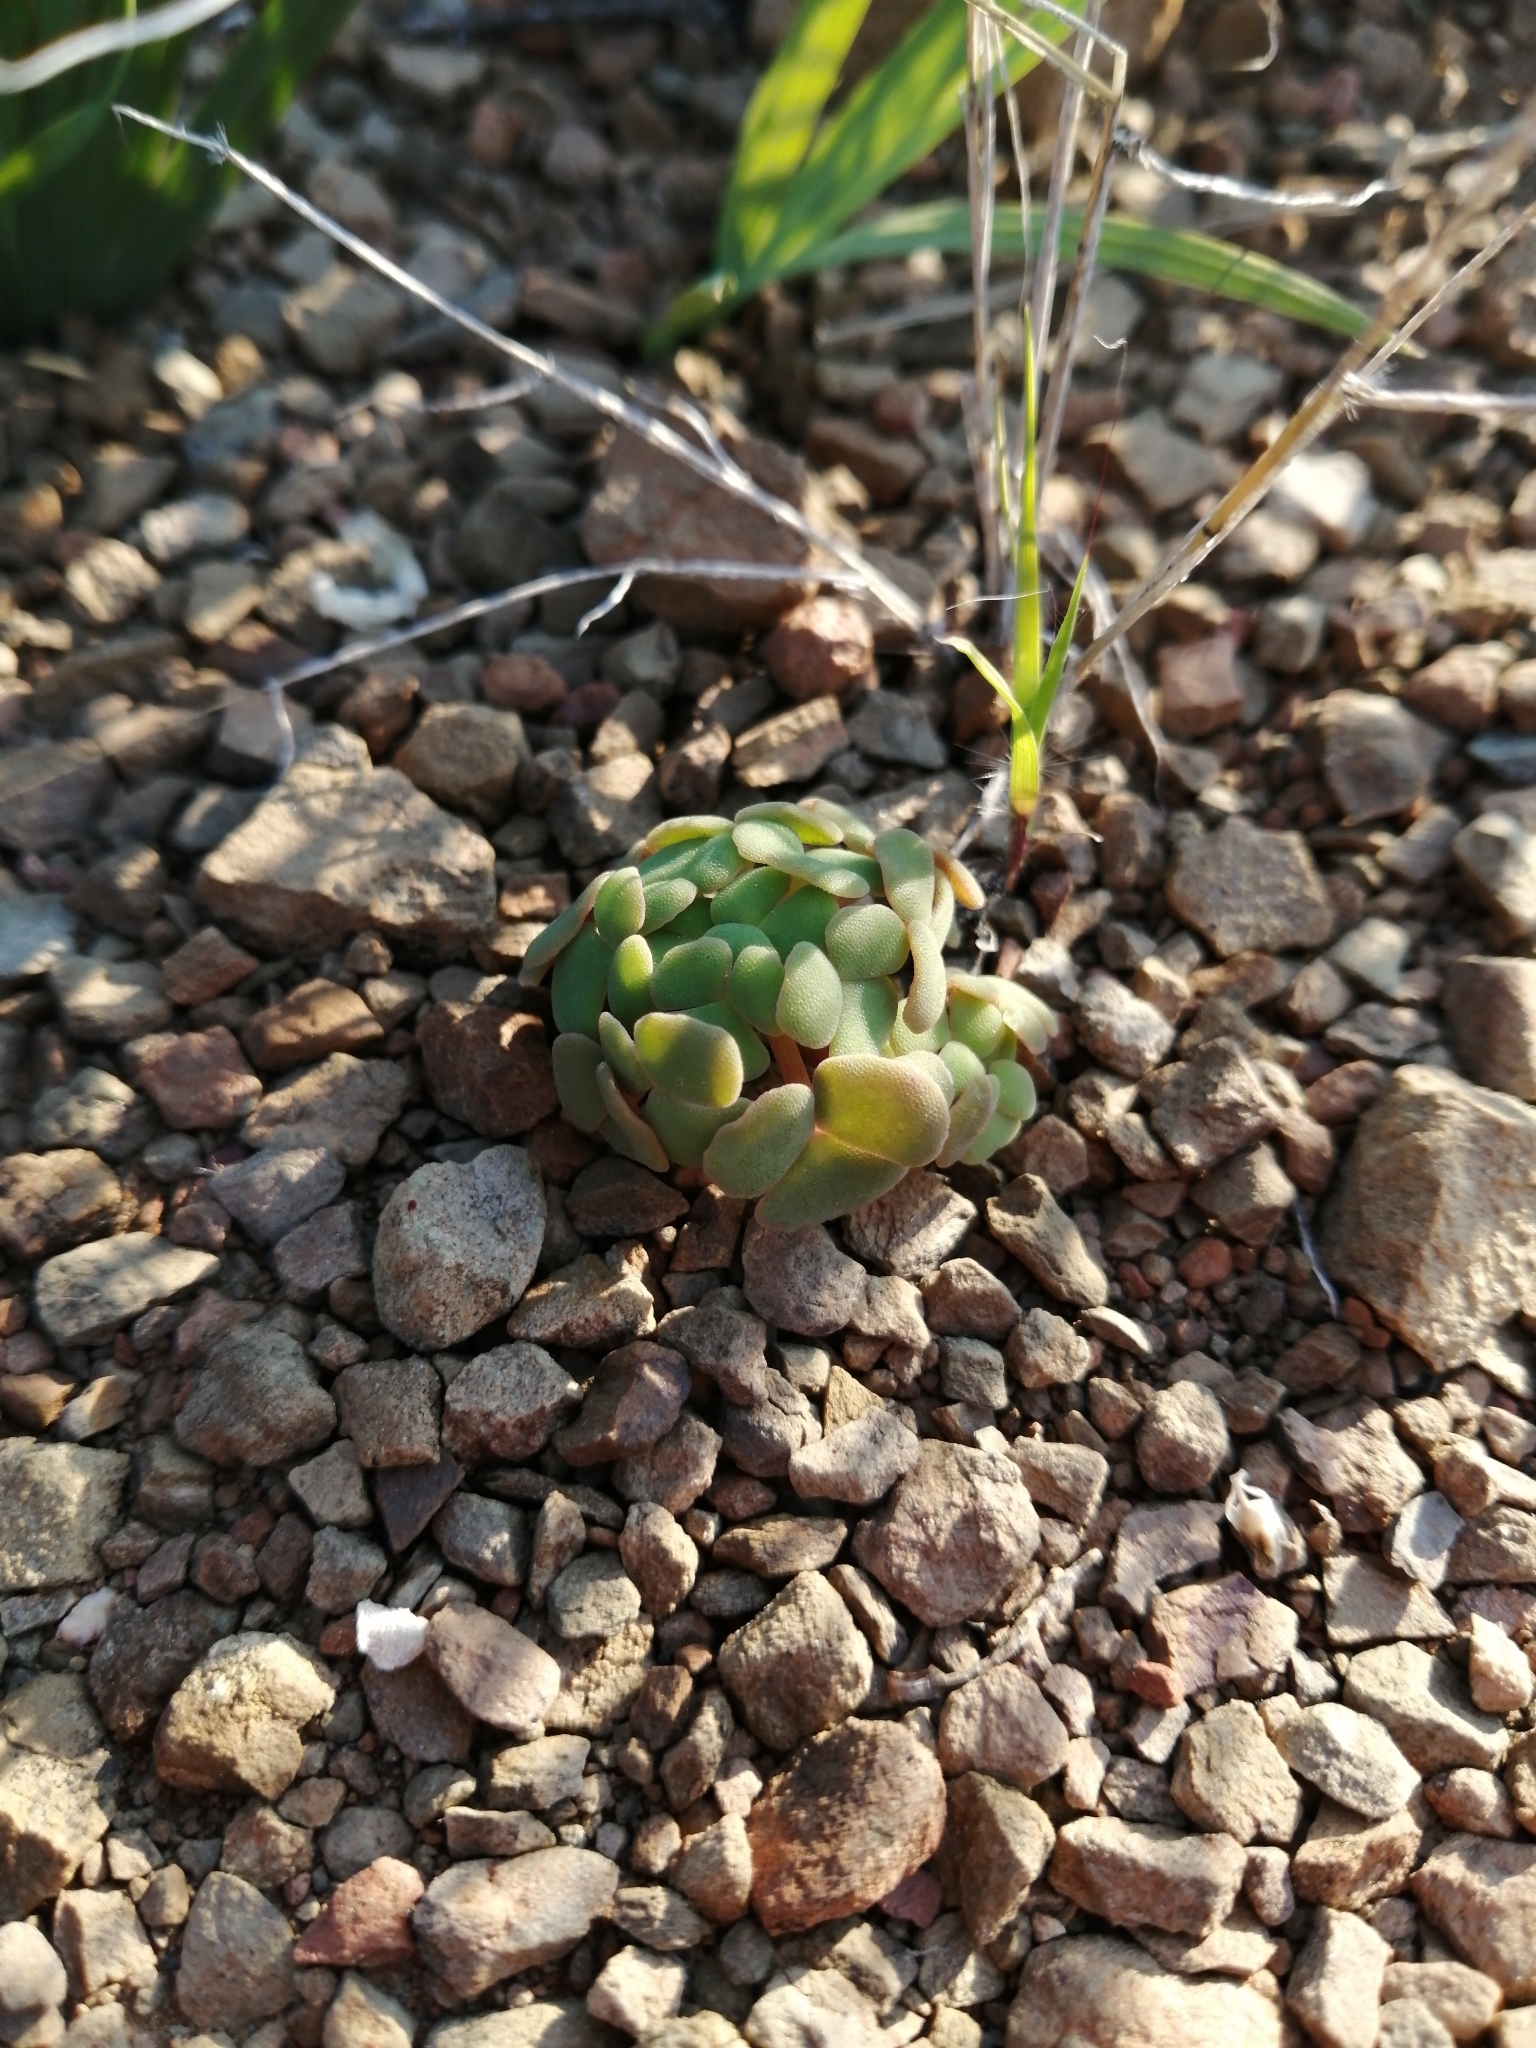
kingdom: Plantae
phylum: Tracheophyta
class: Magnoliopsida
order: Oxalidales
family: Oxalidaceae
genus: Oxalis
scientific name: Oxalis convexula
